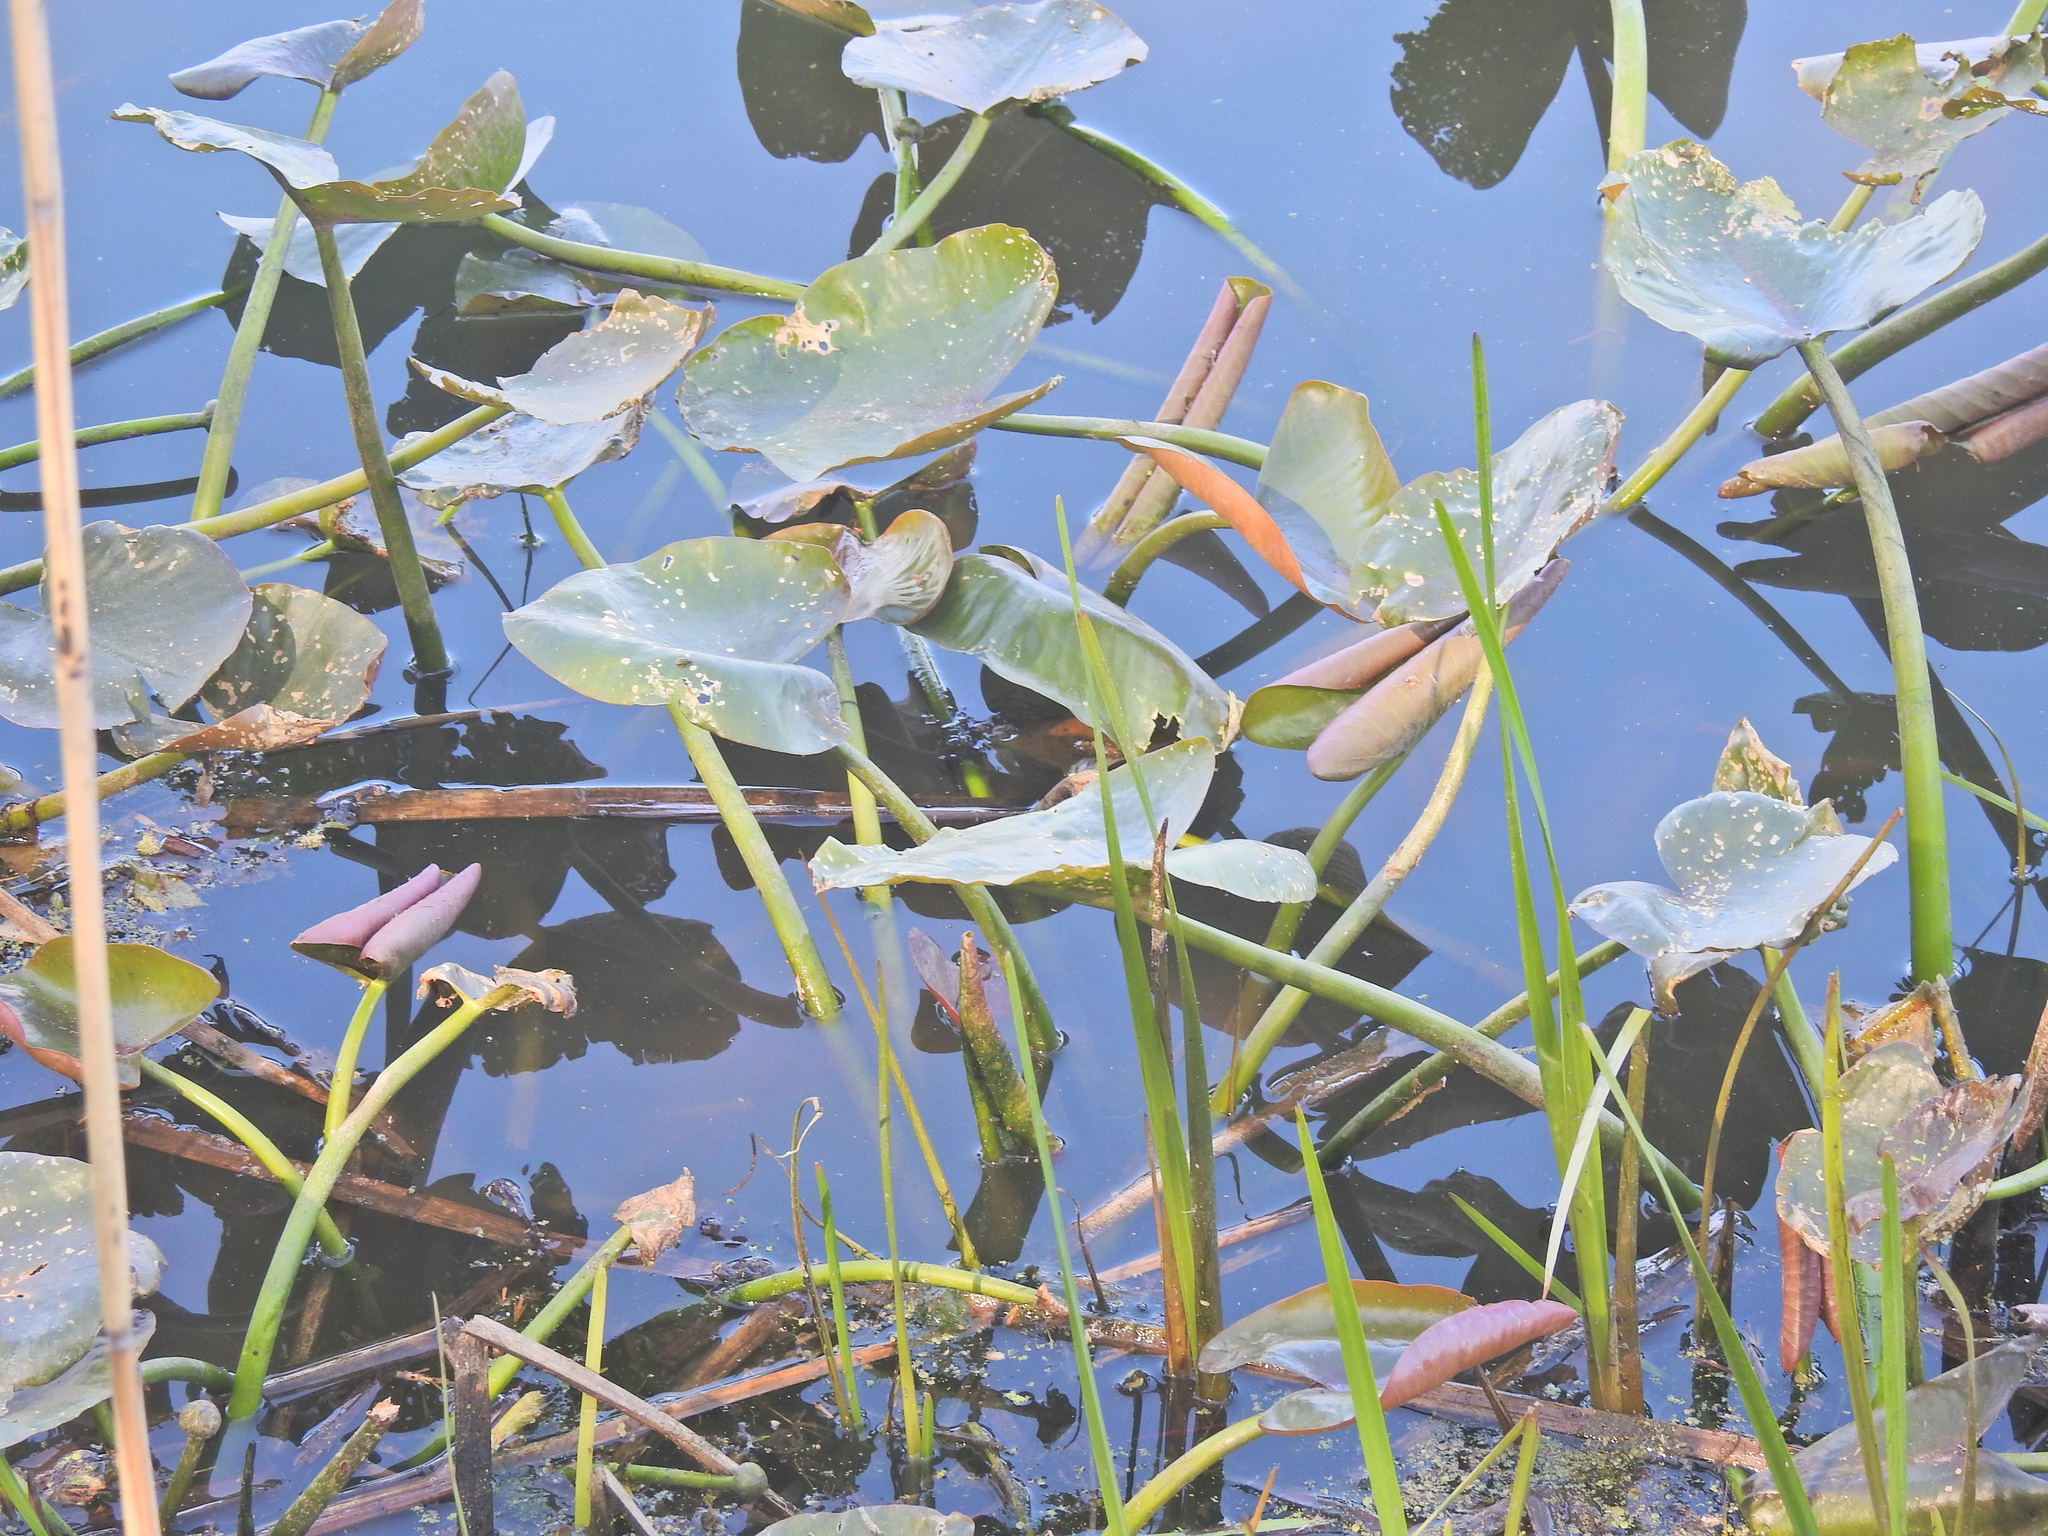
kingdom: Plantae
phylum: Tracheophyta
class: Magnoliopsida
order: Nymphaeales
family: Nymphaeaceae
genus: Nuphar
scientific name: Nuphar advena
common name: Spatter-dock
